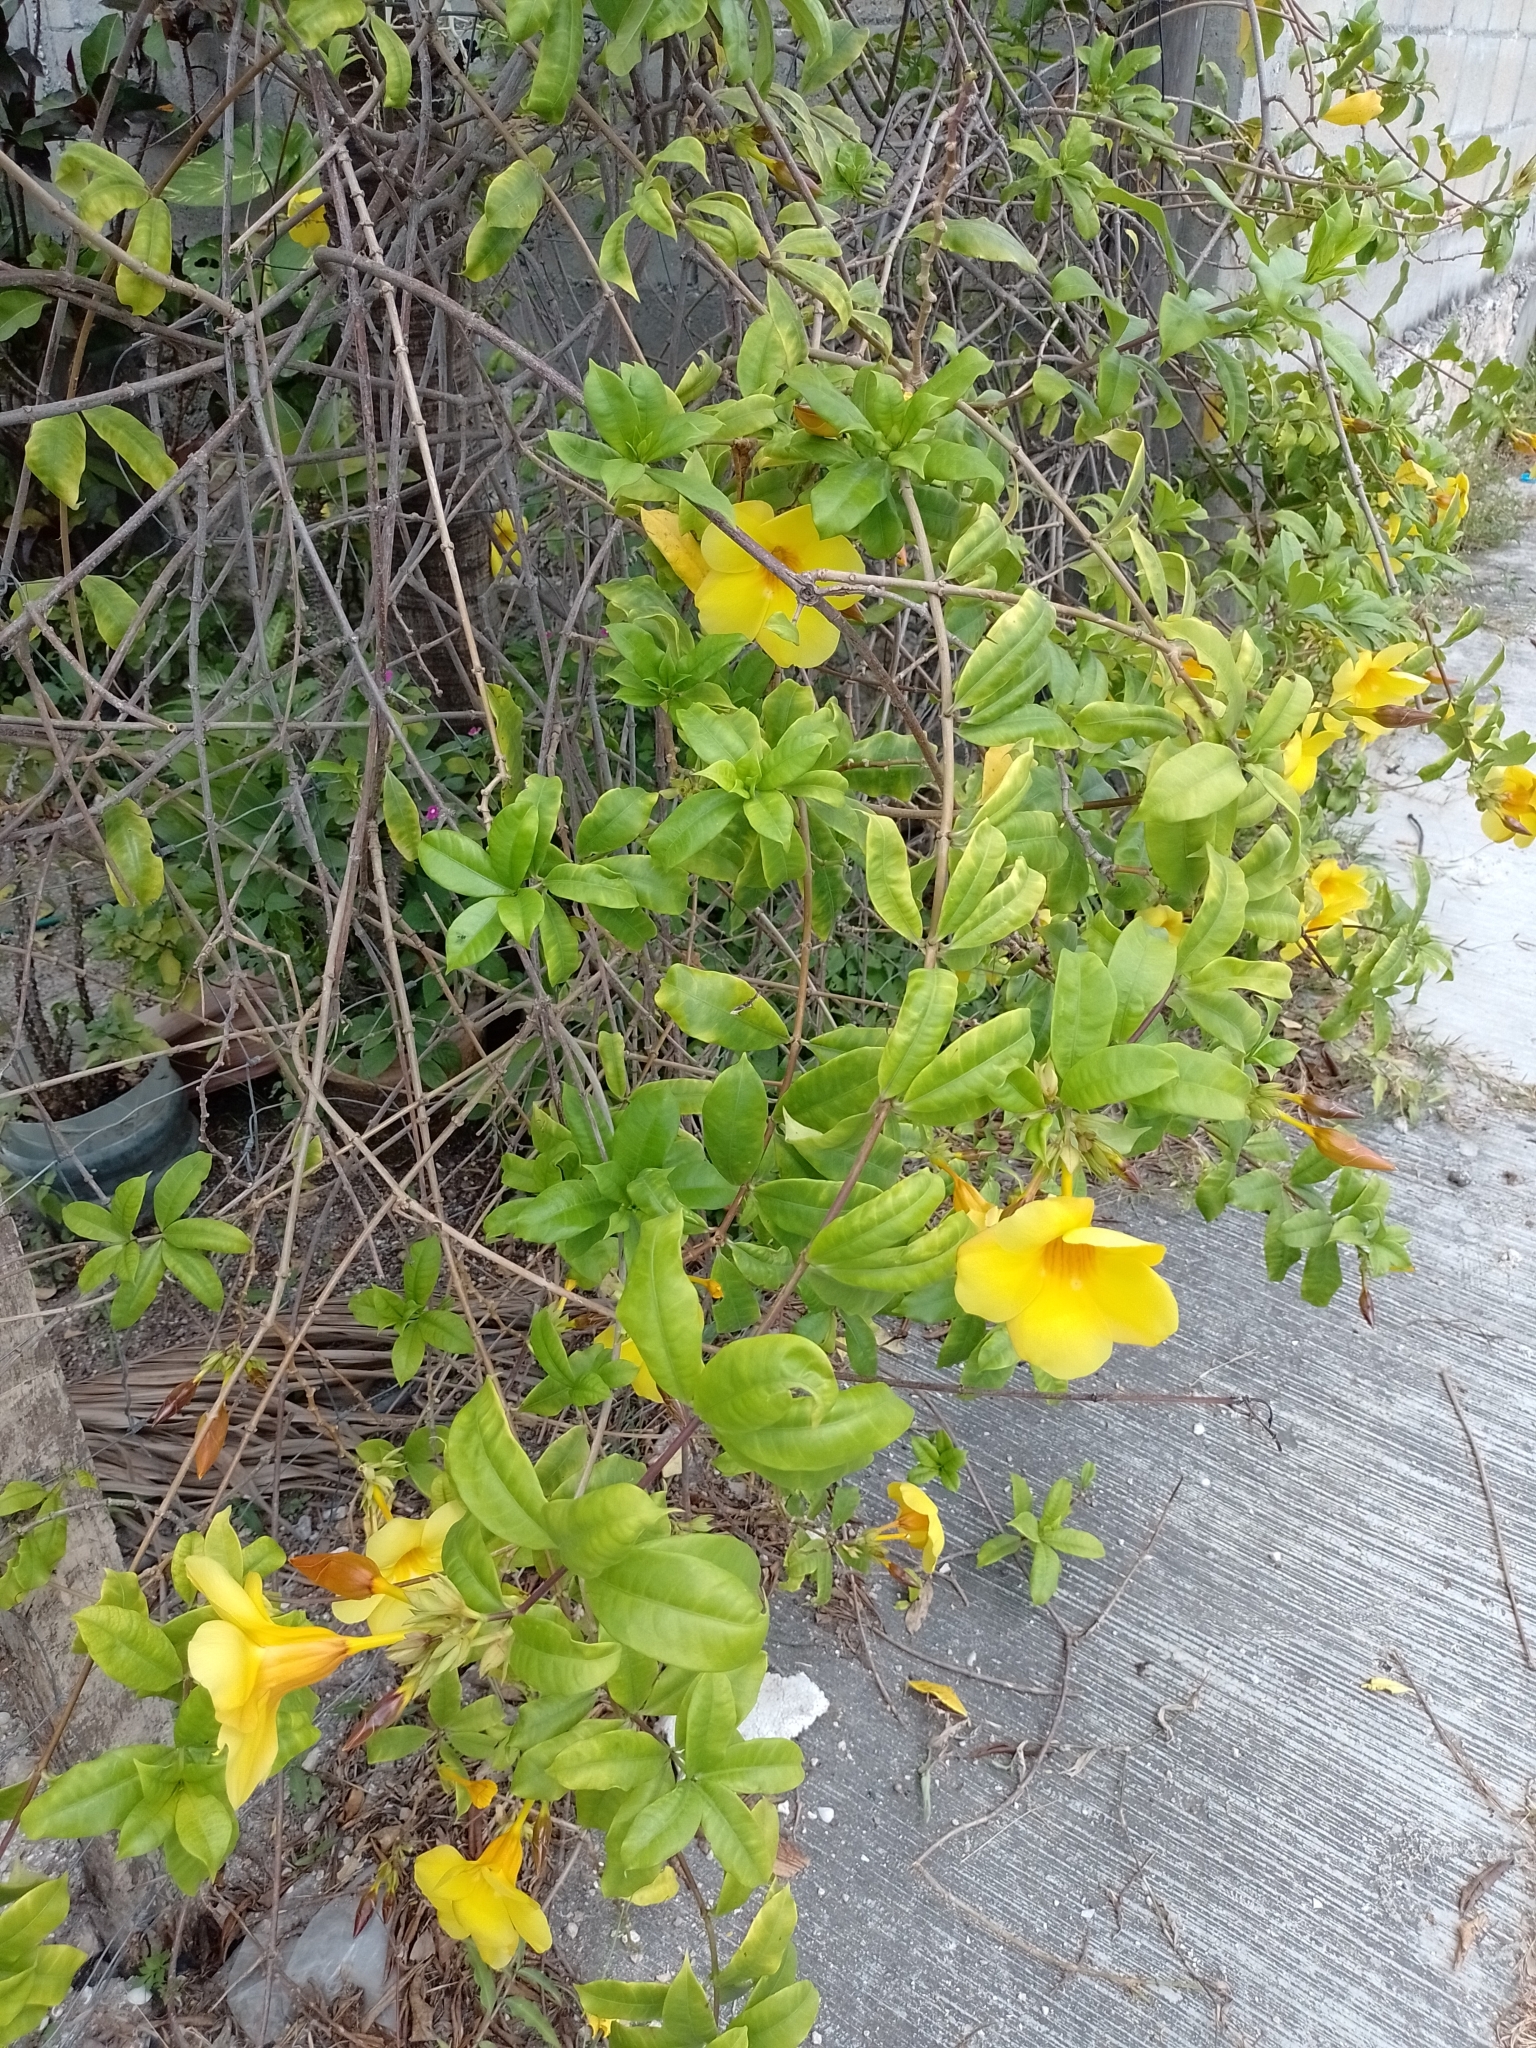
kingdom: Plantae
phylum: Tracheophyta
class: Magnoliopsida
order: Gentianales
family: Apocynaceae
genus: Allamanda
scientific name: Allamanda cathartica
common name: Golden trumpet
